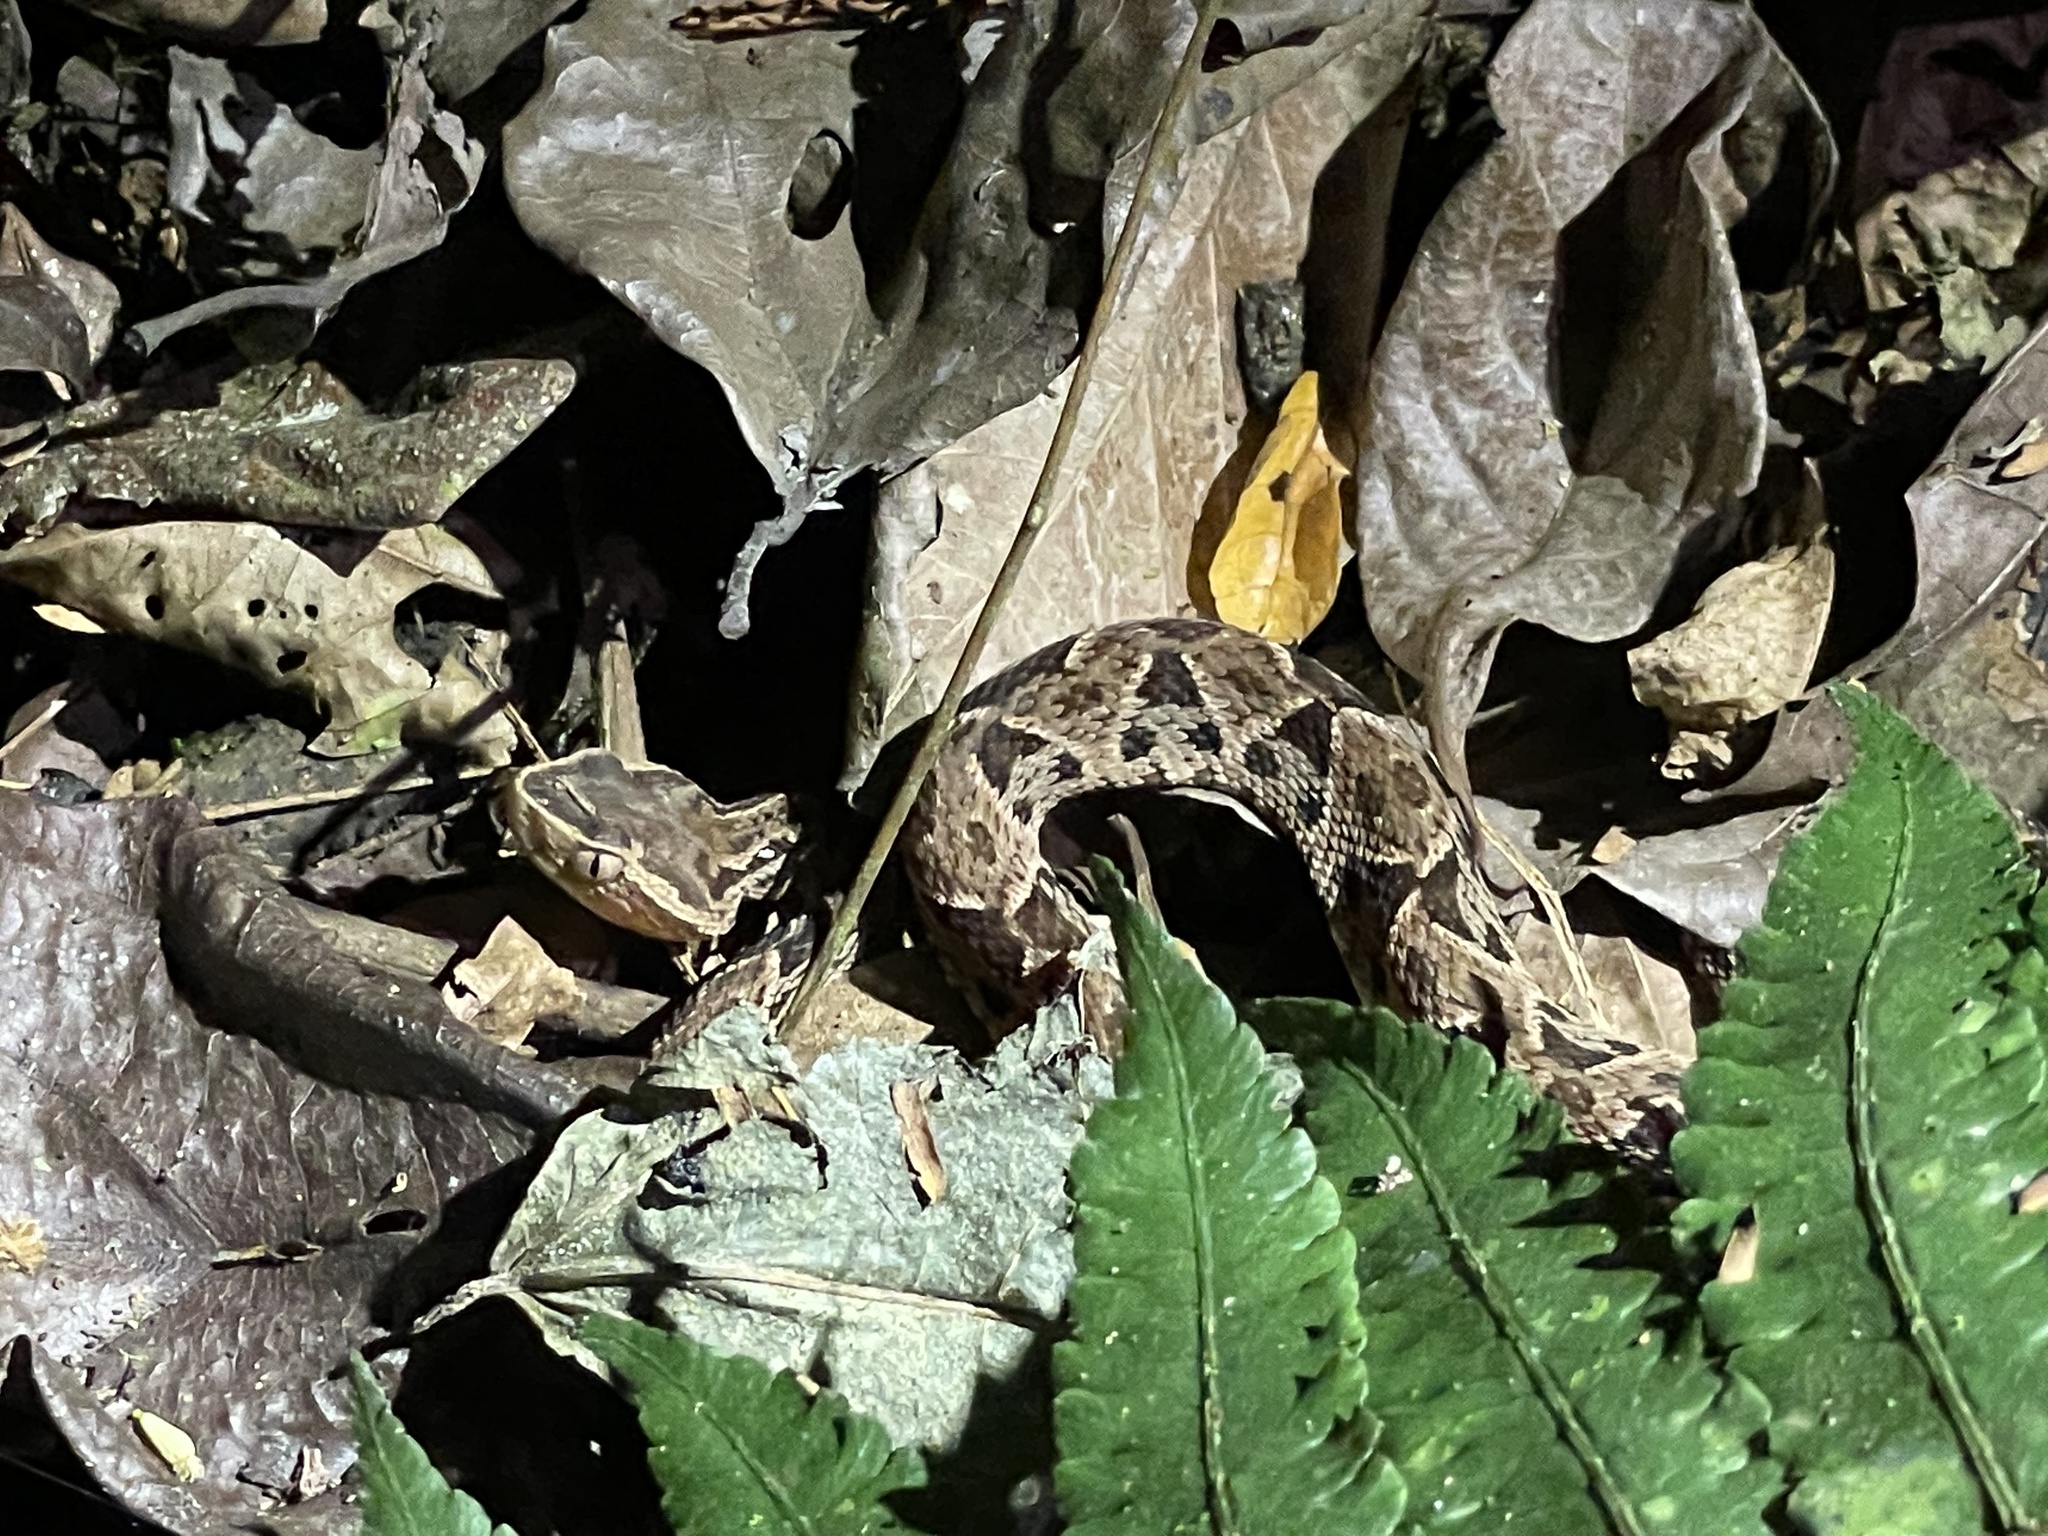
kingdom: Animalia
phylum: Chordata
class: Squamata
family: Viperidae
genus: Bothrops
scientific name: Bothrops asper
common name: Terciopelo
